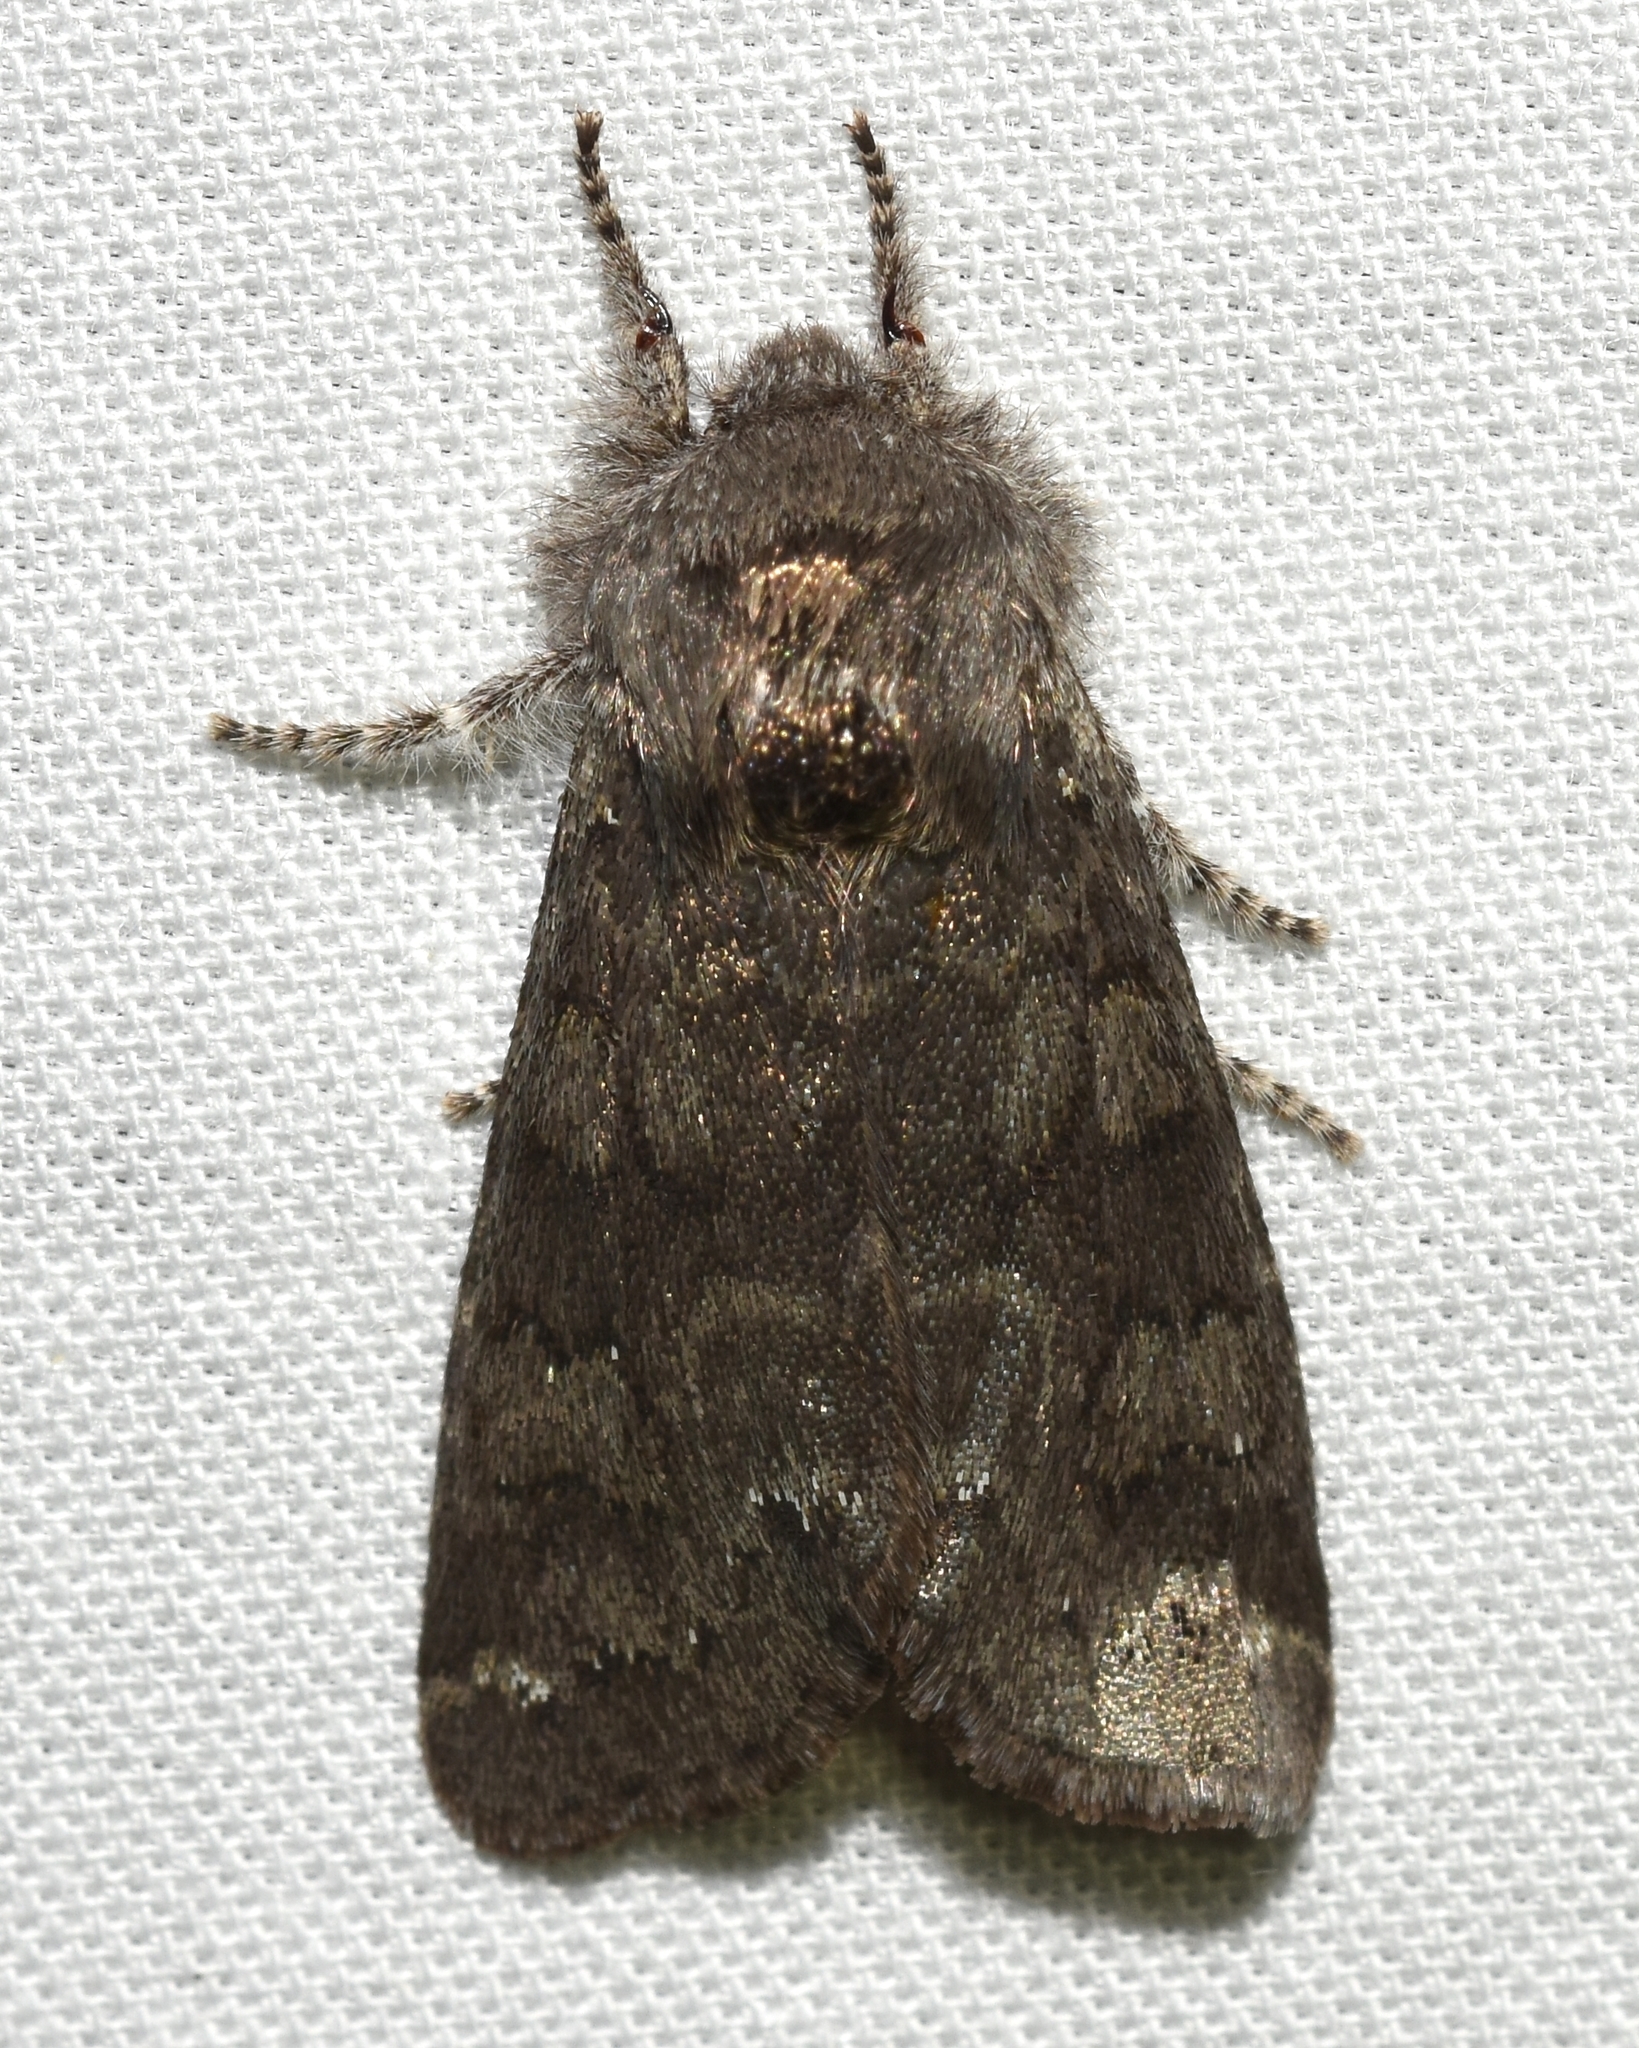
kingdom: Animalia
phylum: Arthropoda
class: Insecta
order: Lepidoptera
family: Noctuidae
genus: Psaphida
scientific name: Psaphida rolandi
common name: Roland's sallow
